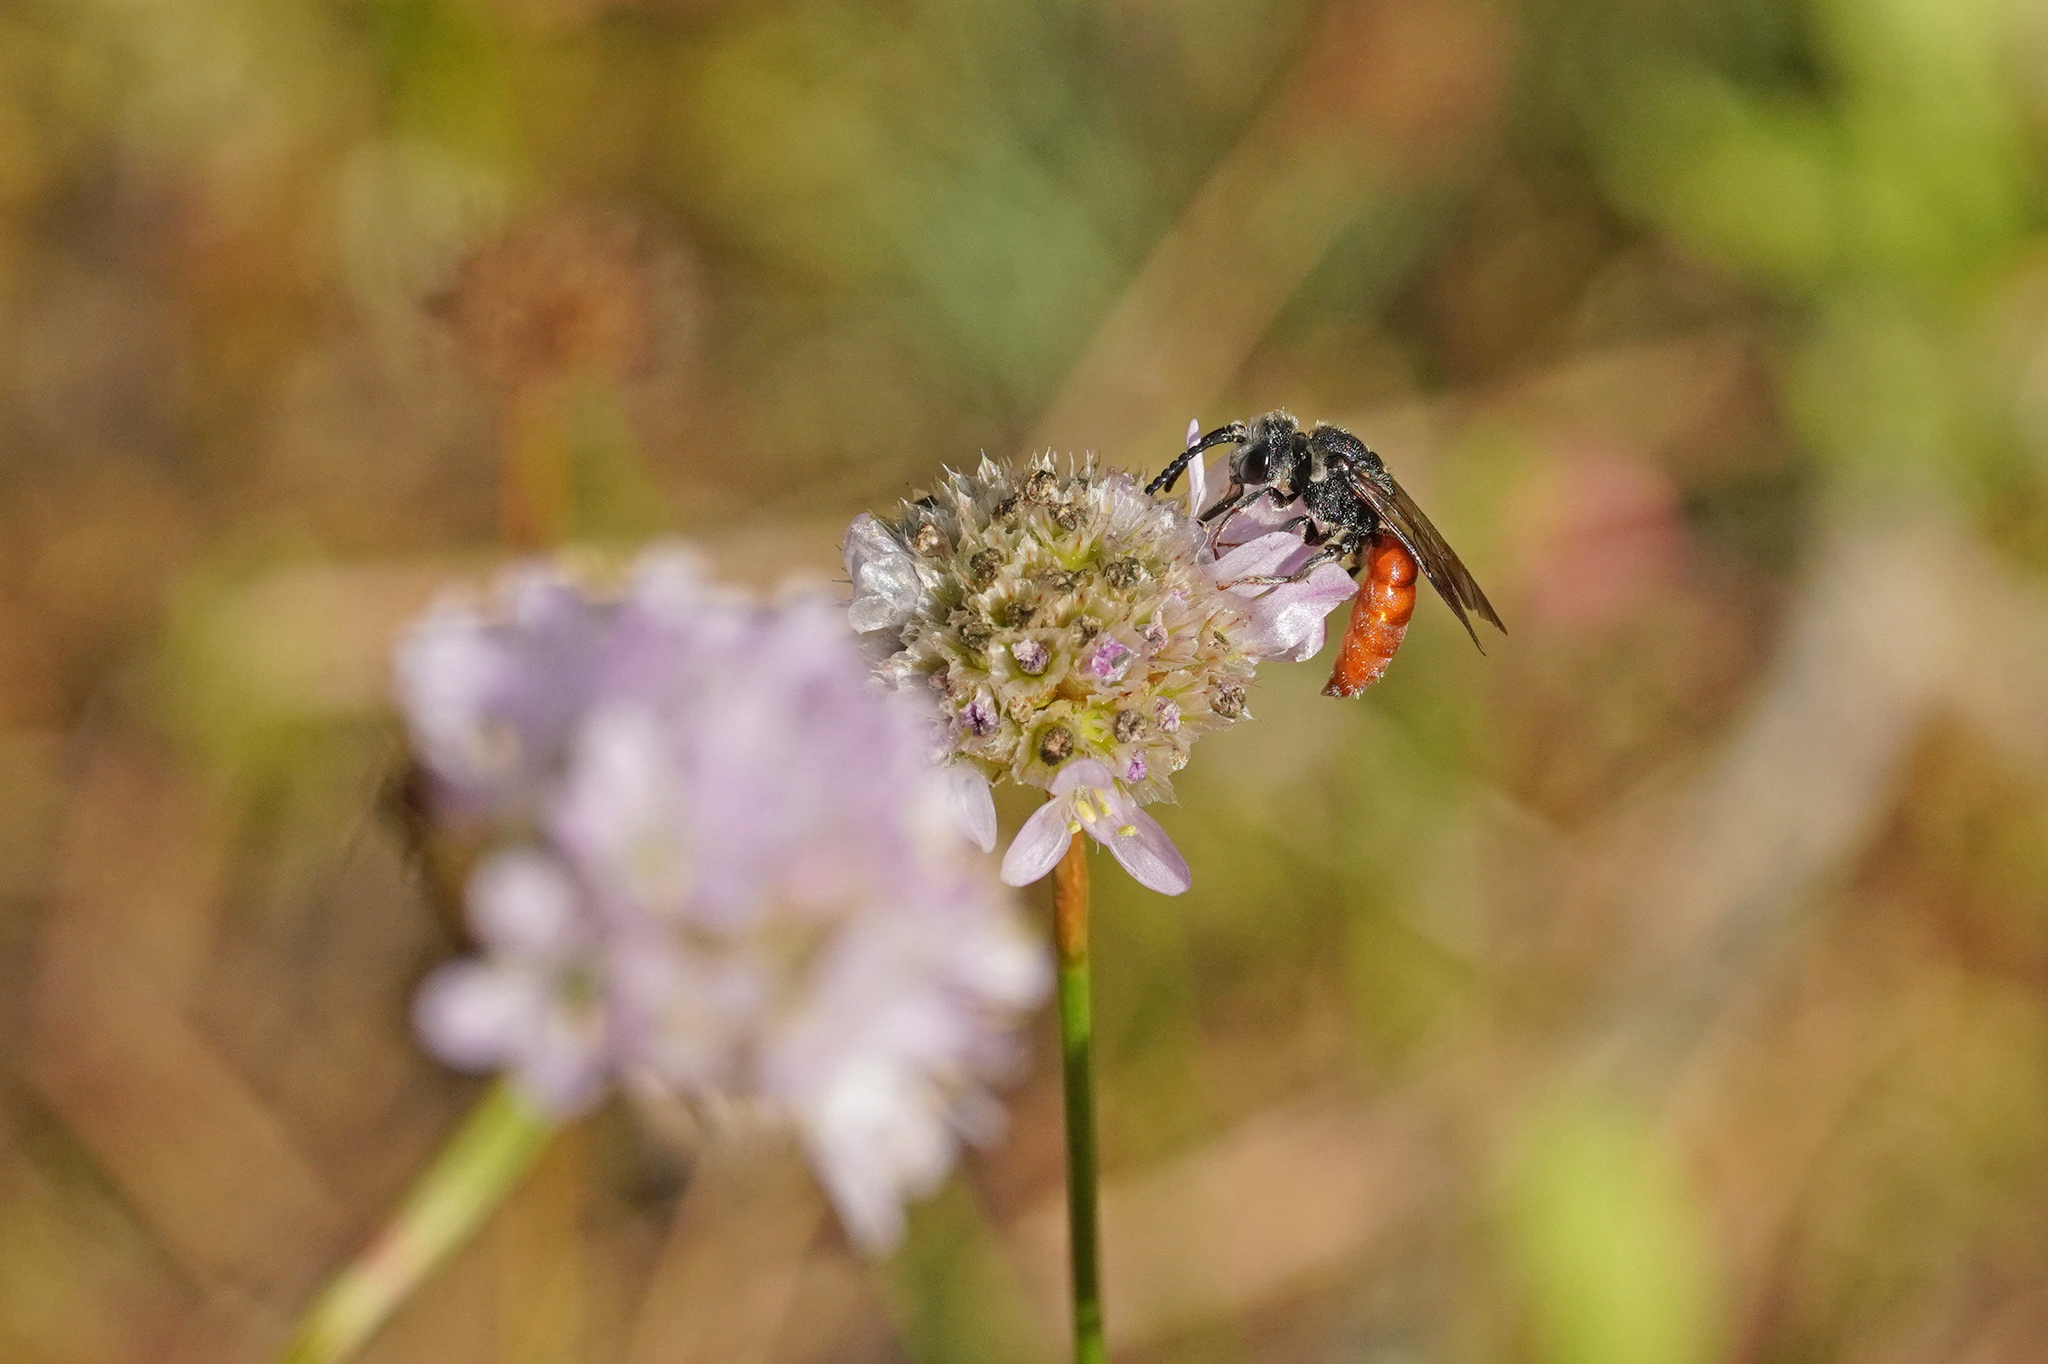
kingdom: Animalia
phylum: Arthropoda
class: Insecta
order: Hymenoptera
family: Halictidae
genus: Sphecodes
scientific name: Sphecodes albilabris
